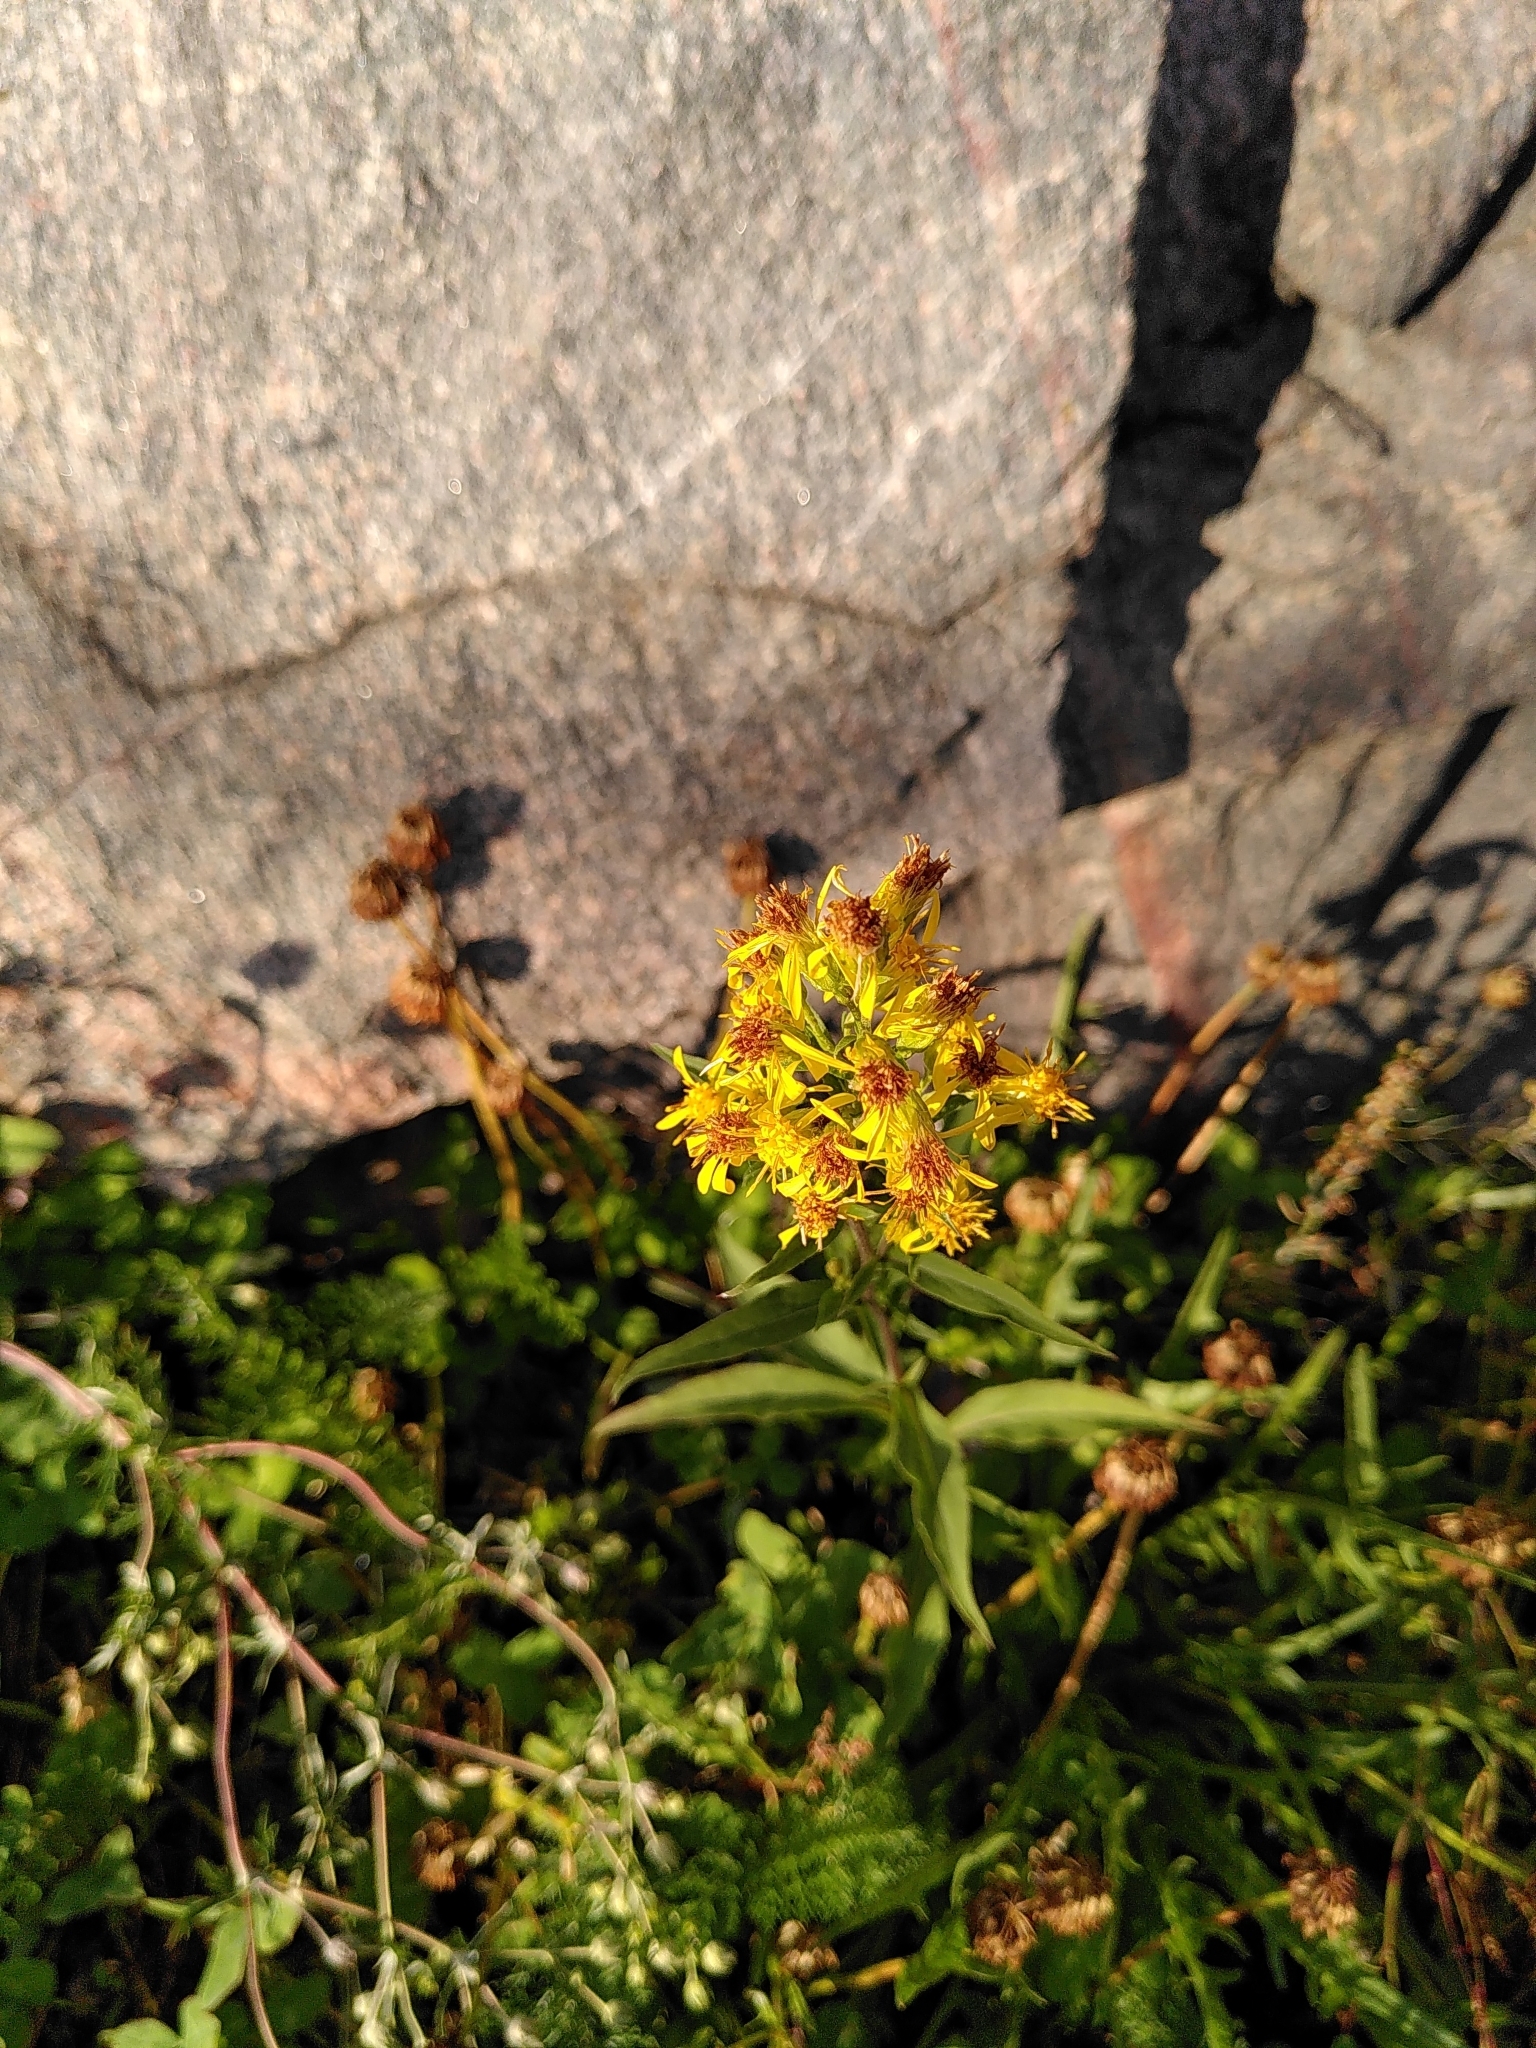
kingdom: Plantae
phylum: Tracheophyta
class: Magnoliopsida
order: Asterales
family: Asteraceae
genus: Solidago
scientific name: Solidago virgaurea
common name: Goldenrod
